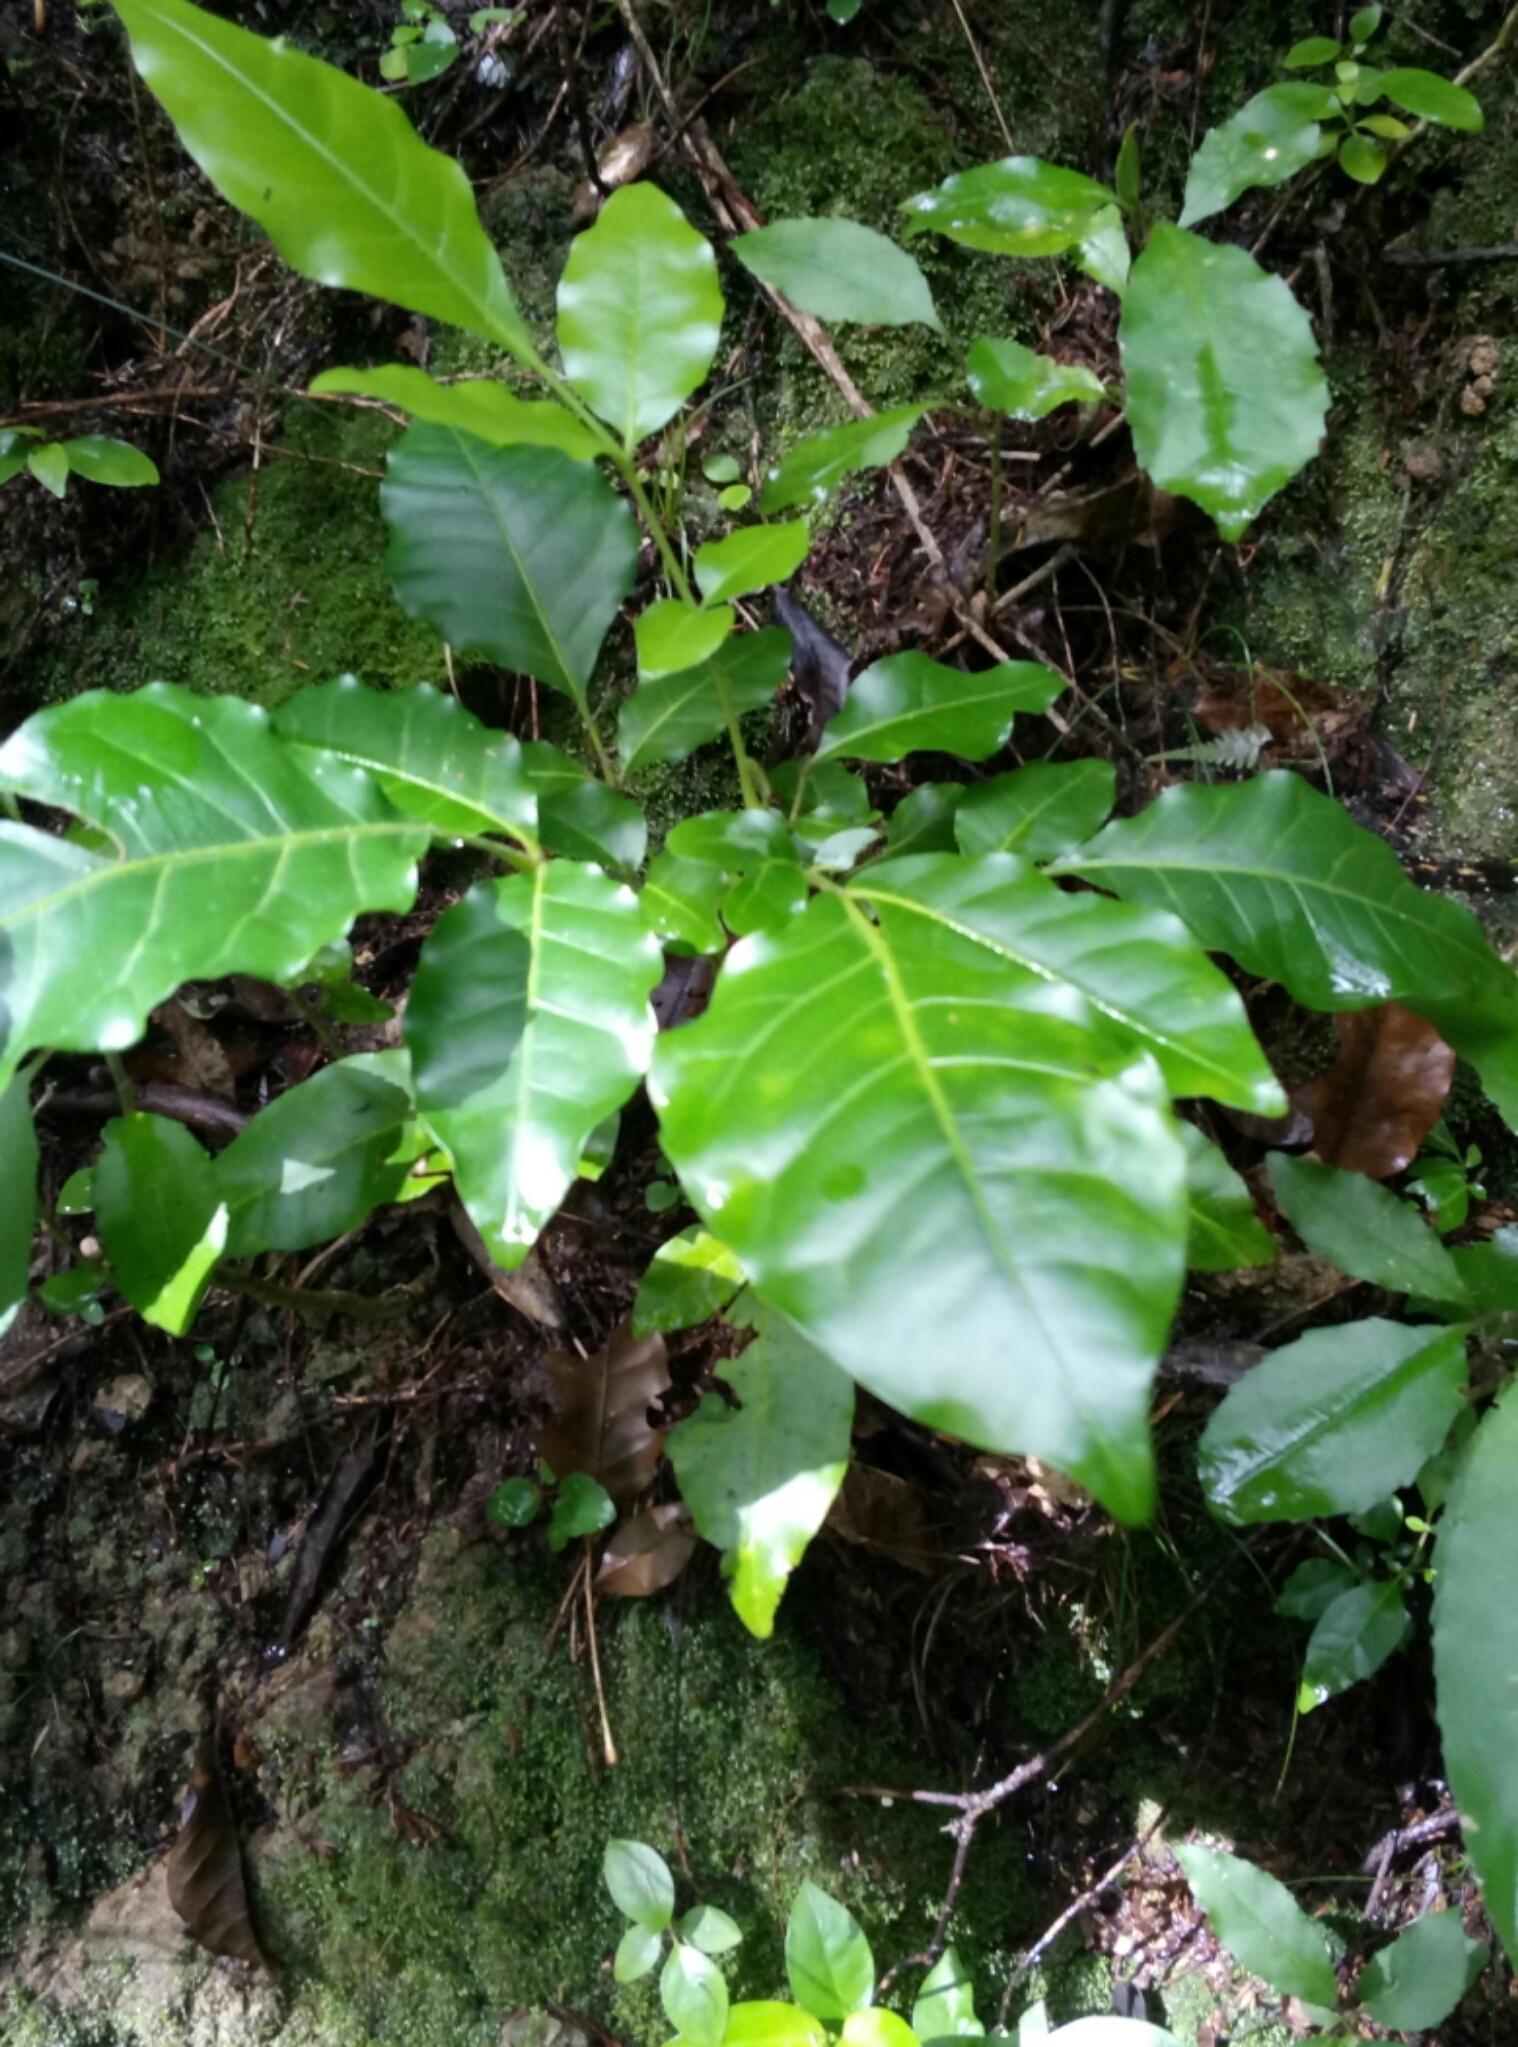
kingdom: Plantae
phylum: Tracheophyta
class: Magnoliopsida
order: Sapindales
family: Meliaceae
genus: Didymocheton
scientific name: Didymocheton spectabilis
